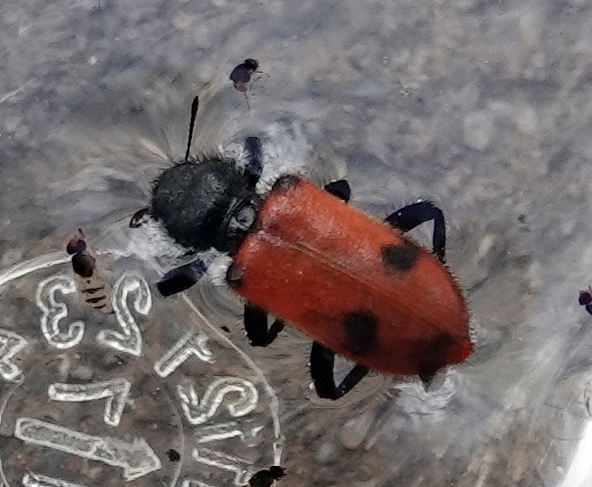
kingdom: Animalia
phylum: Arthropoda
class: Insecta
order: Coleoptera
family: Cleridae
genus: Enoclerus
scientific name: Enoclerus
